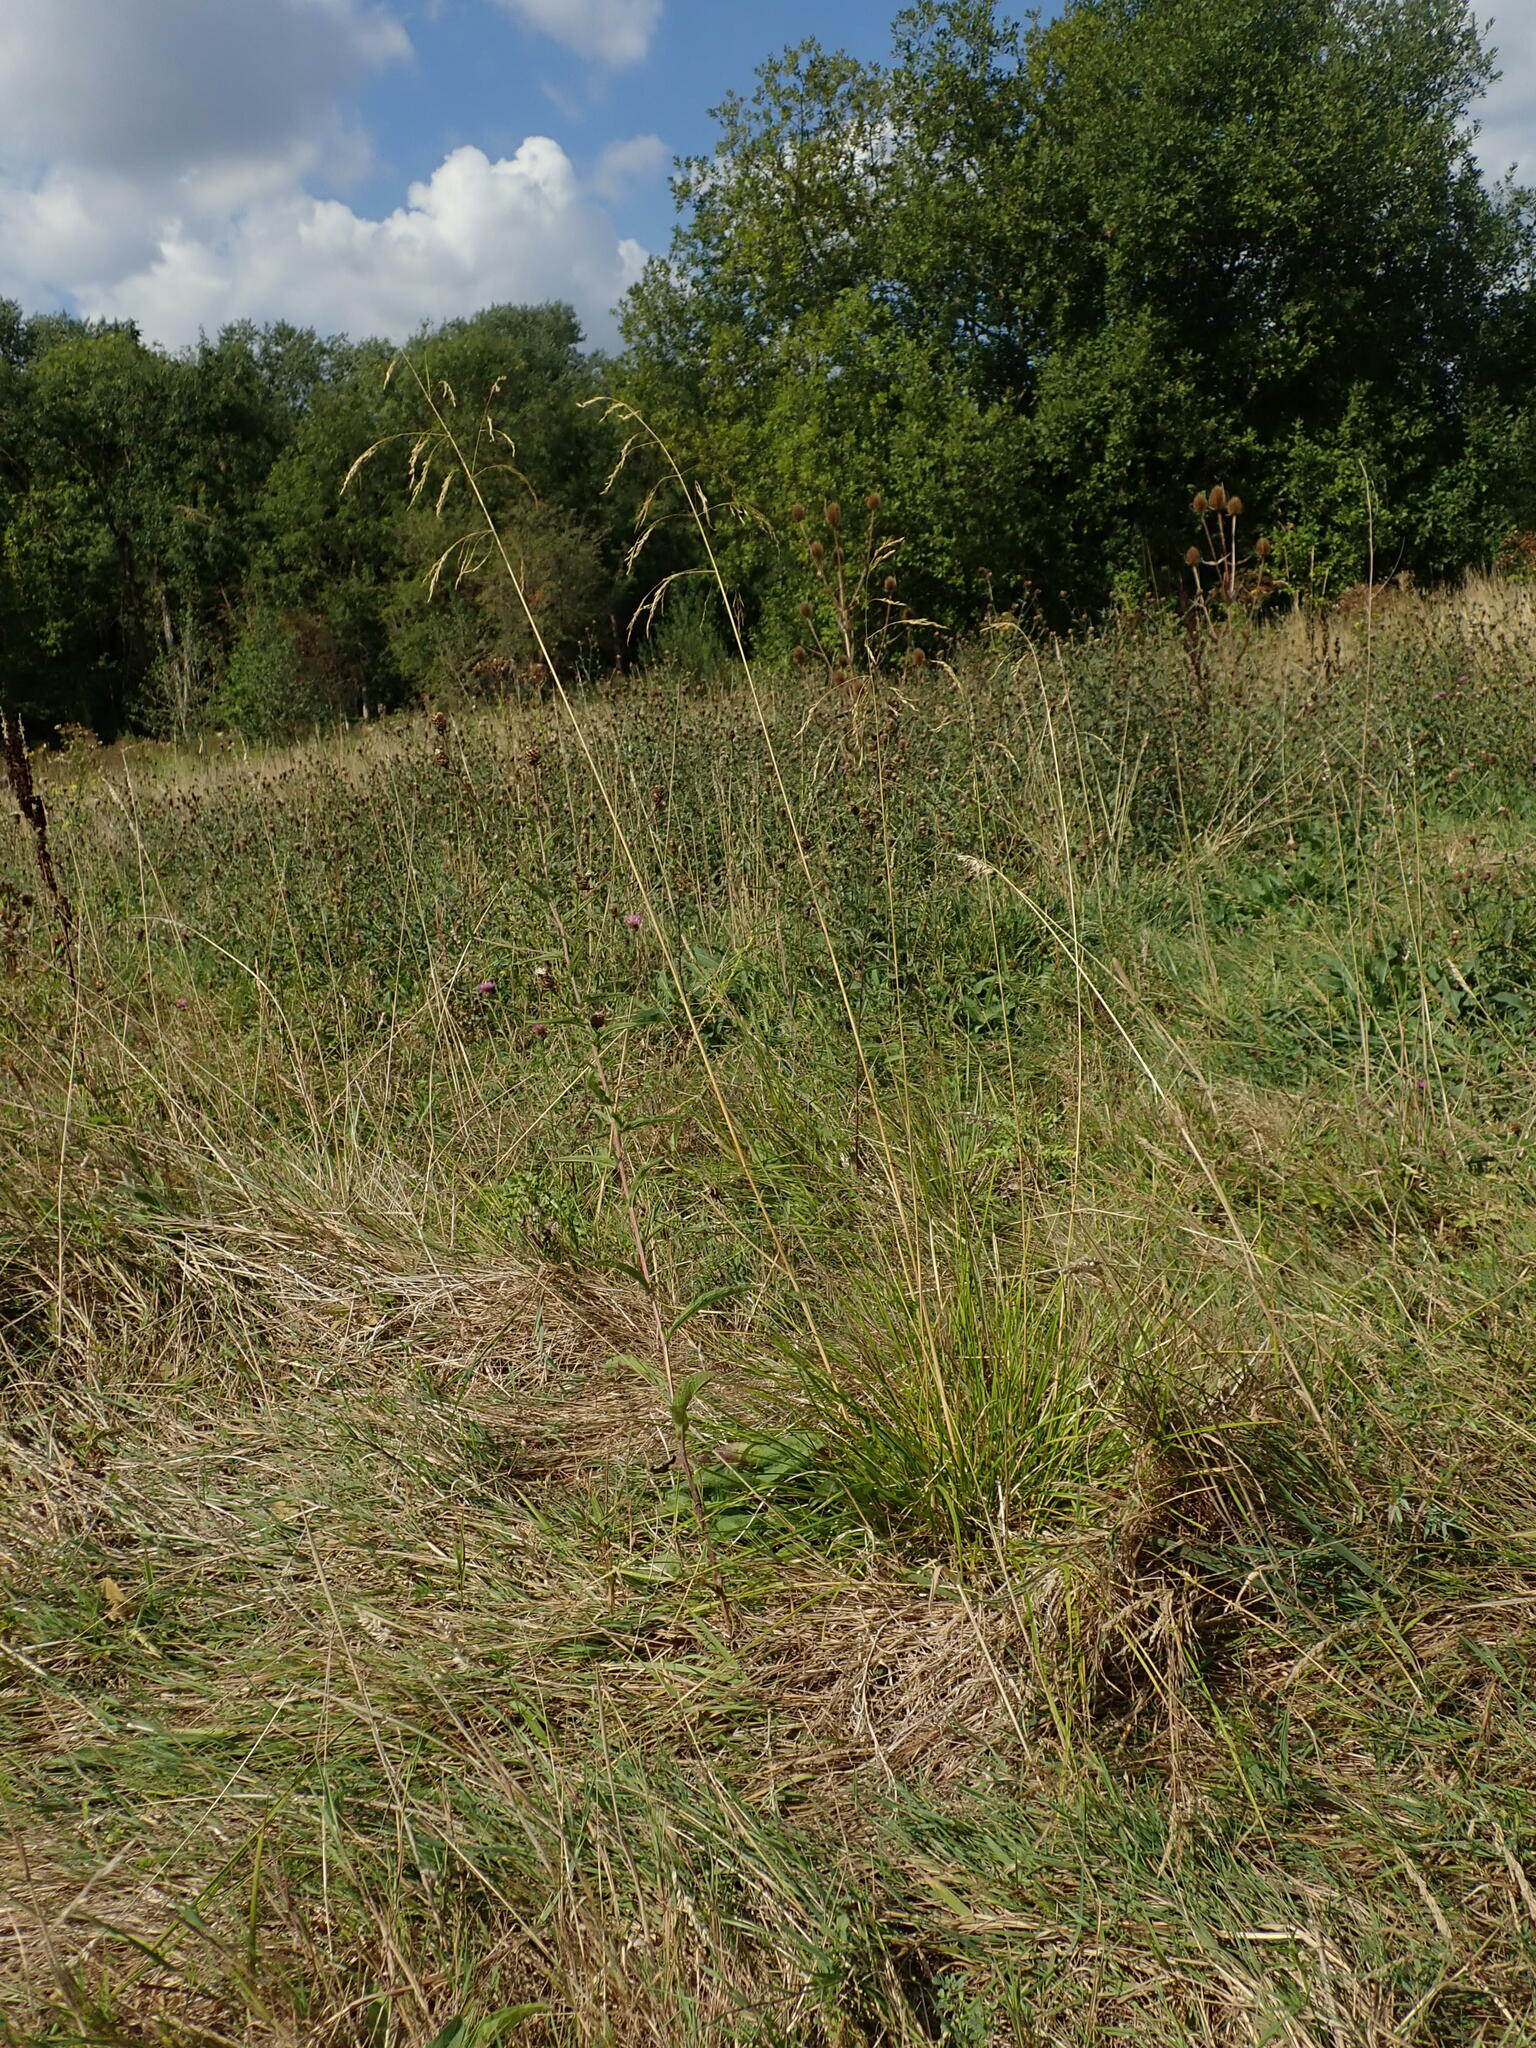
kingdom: Plantae
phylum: Tracheophyta
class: Liliopsida
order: Poales
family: Poaceae
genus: Deschampsia
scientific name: Deschampsia cespitosa
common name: Tufted hair-grass
